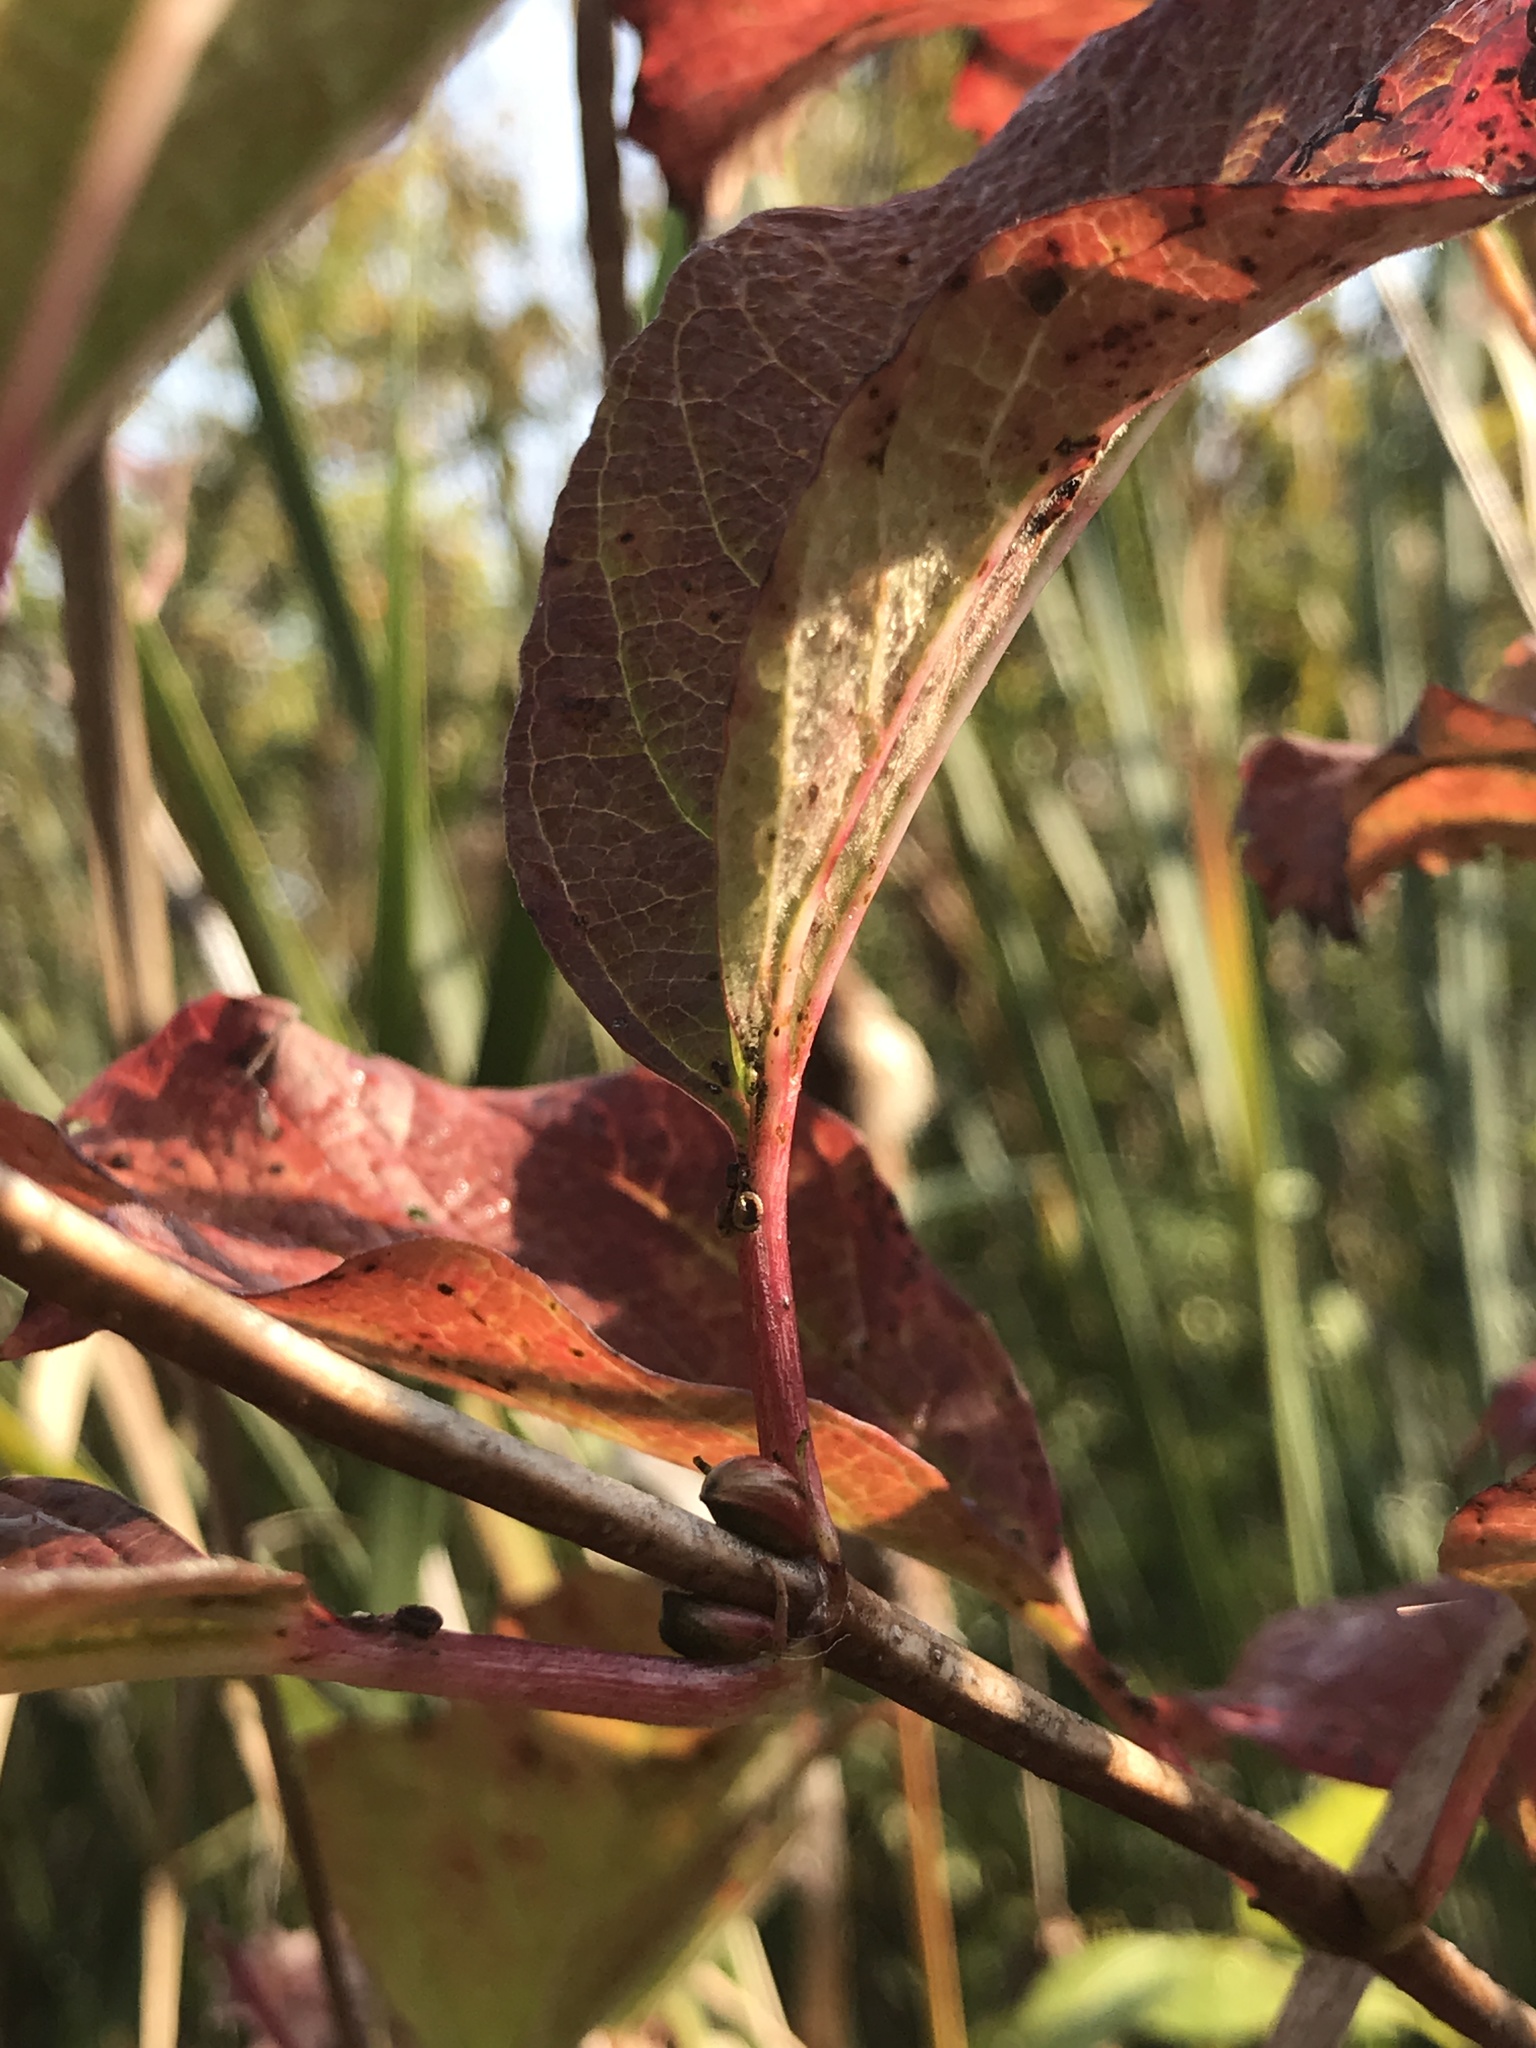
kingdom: Plantae
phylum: Tracheophyta
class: Magnoliopsida
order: Dipsacales
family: Viburnaceae
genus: Viburnum
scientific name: Viburnum opulus
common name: Guelder-rose
